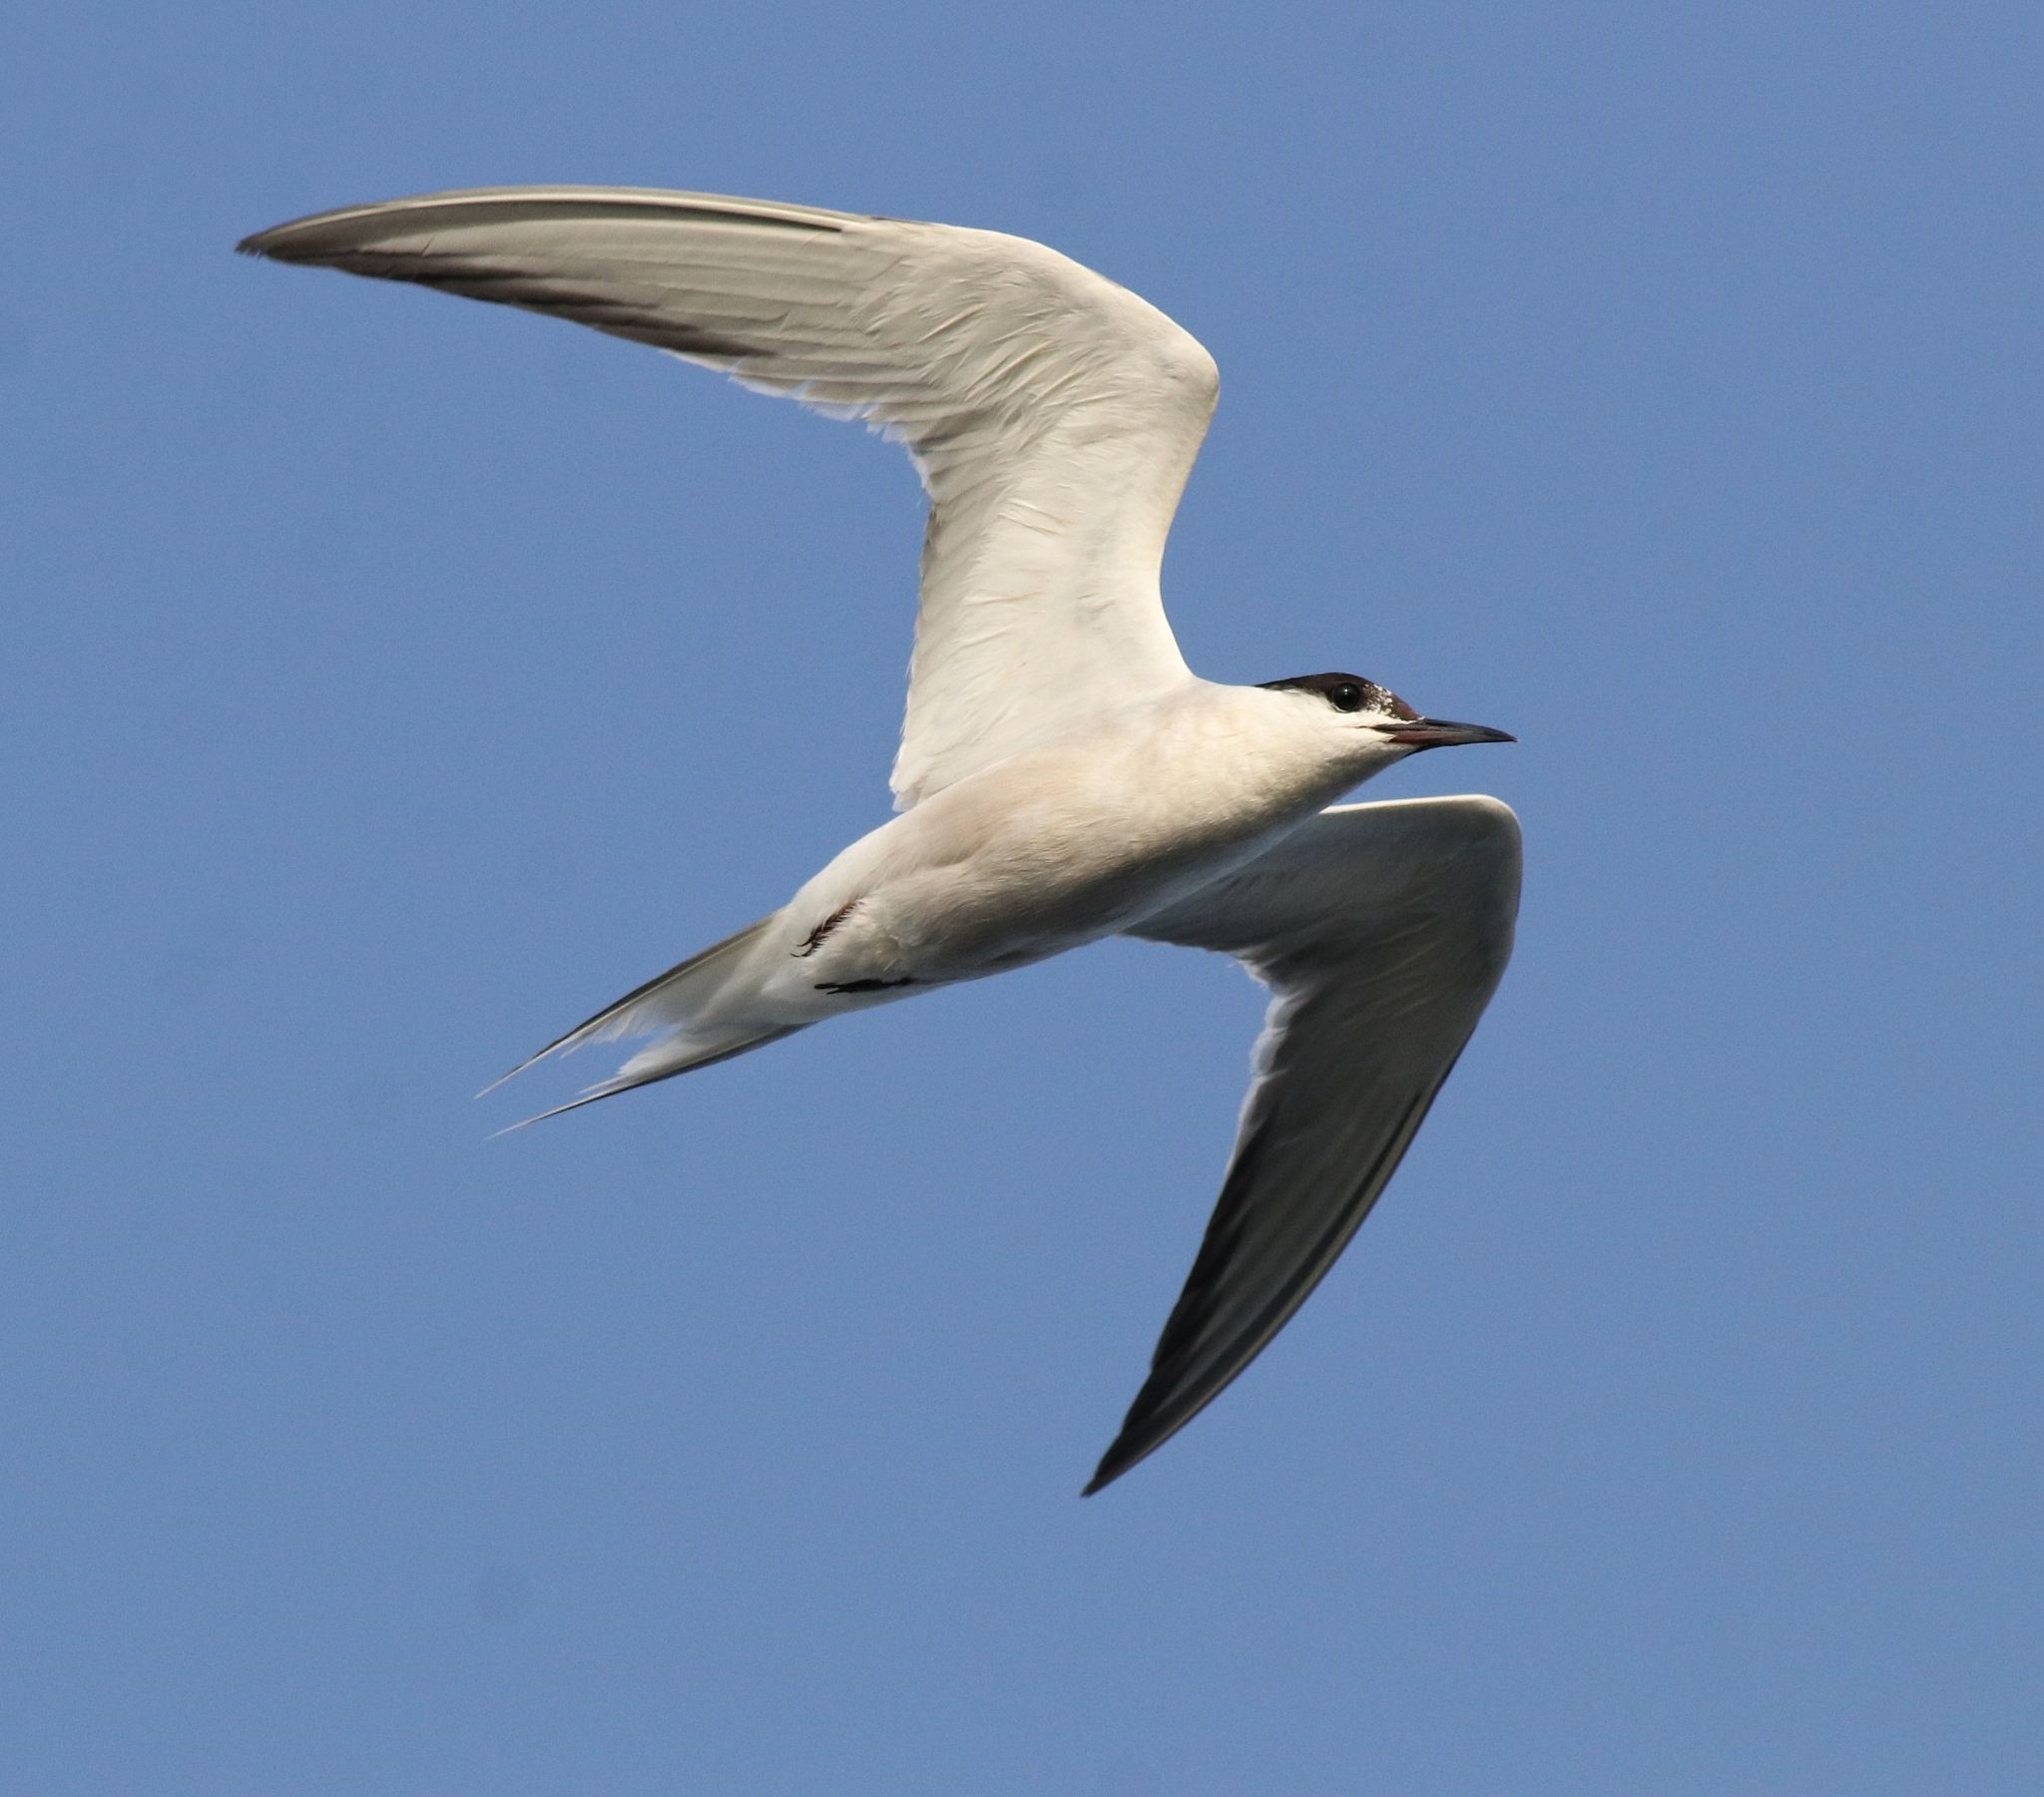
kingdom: Animalia
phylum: Chordata
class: Aves
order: Charadriiformes
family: Laridae
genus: Sterna
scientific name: Sterna hirundo
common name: Common tern
